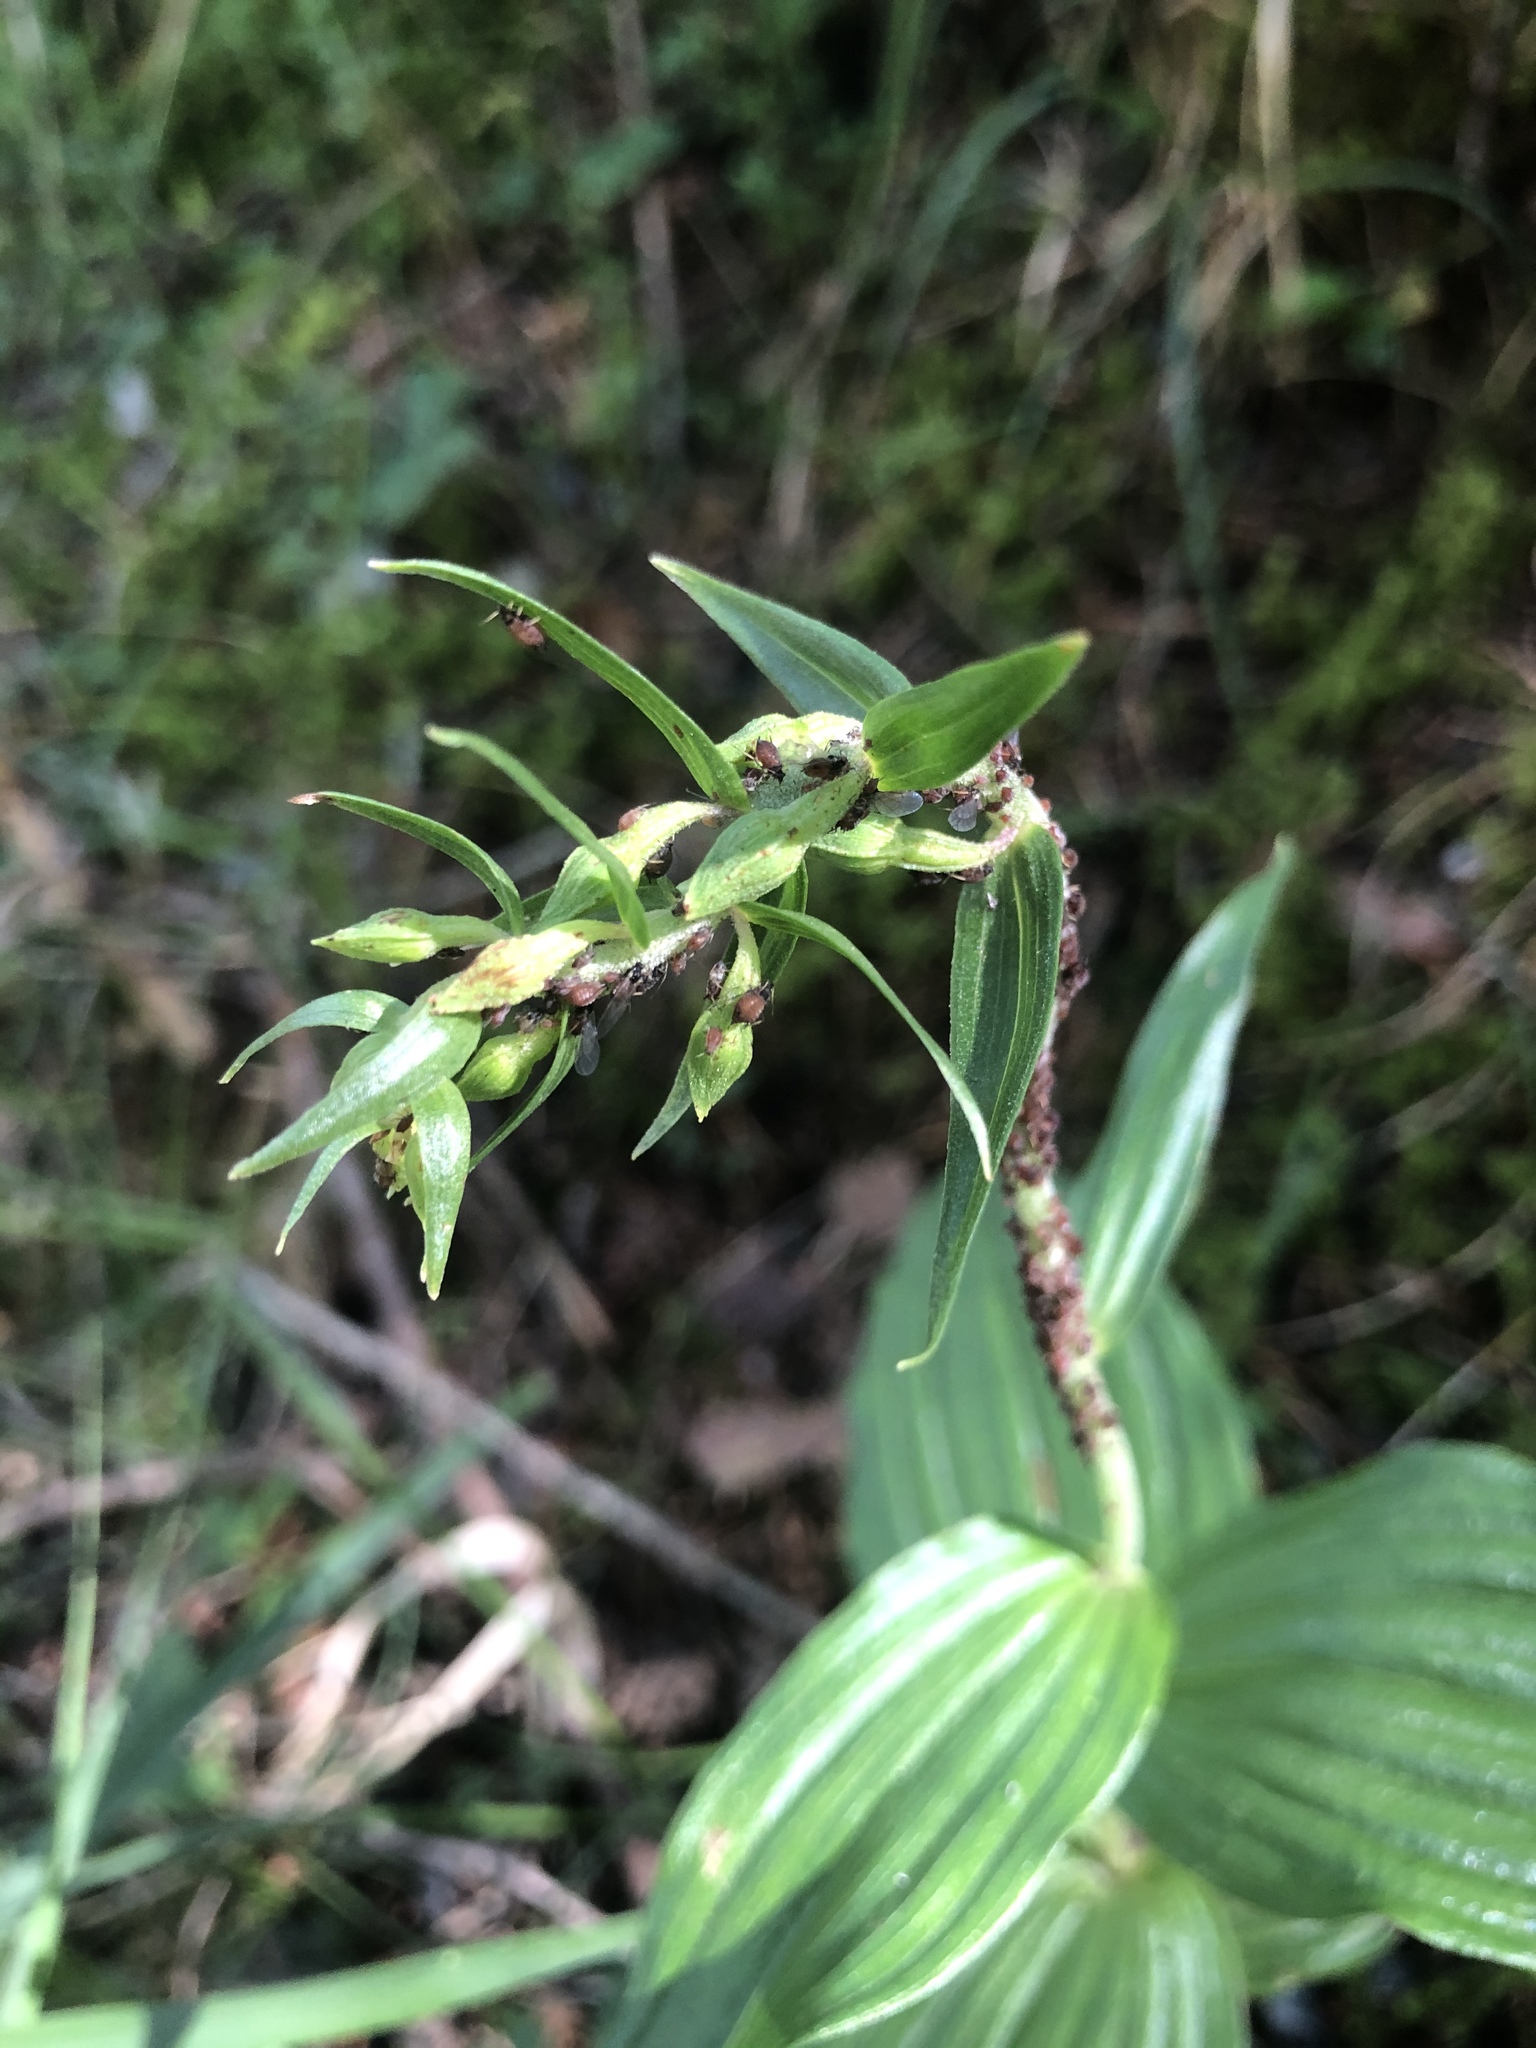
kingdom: Plantae
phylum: Tracheophyta
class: Liliopsida
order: Asparagales
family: Orchidaceae
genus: Epipactis
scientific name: Epipactis helleborine
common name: Broad-leaved helleborine
